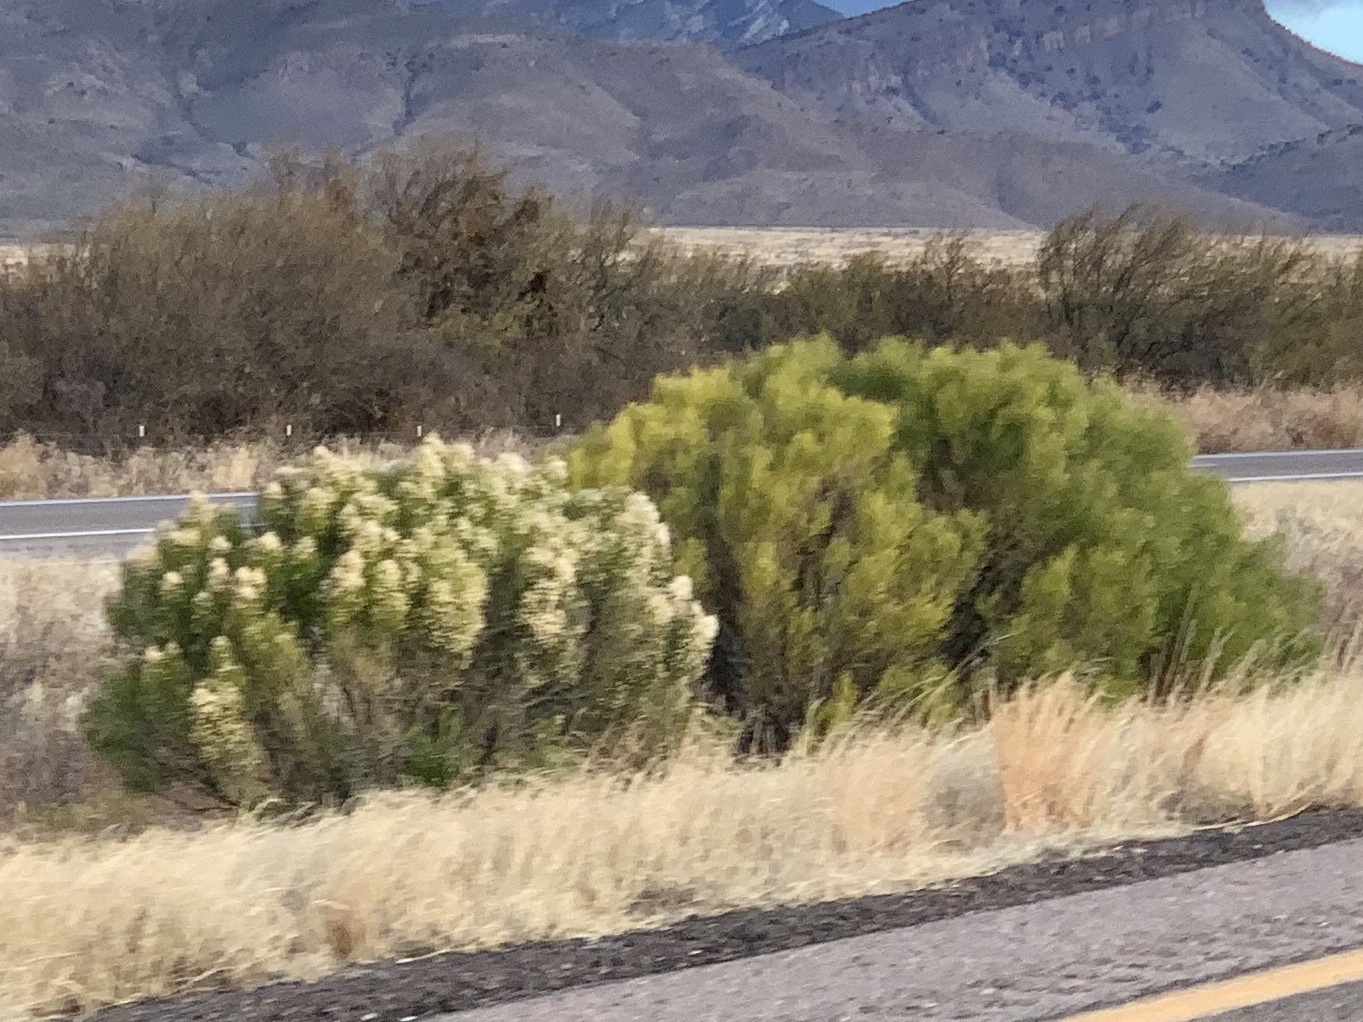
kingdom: Plantae
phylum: Tracheophyta
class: Magnoliopsida
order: Asterales
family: Asteraceae
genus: Baccharis
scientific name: Baccharis sarothroides
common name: Desert-broom
